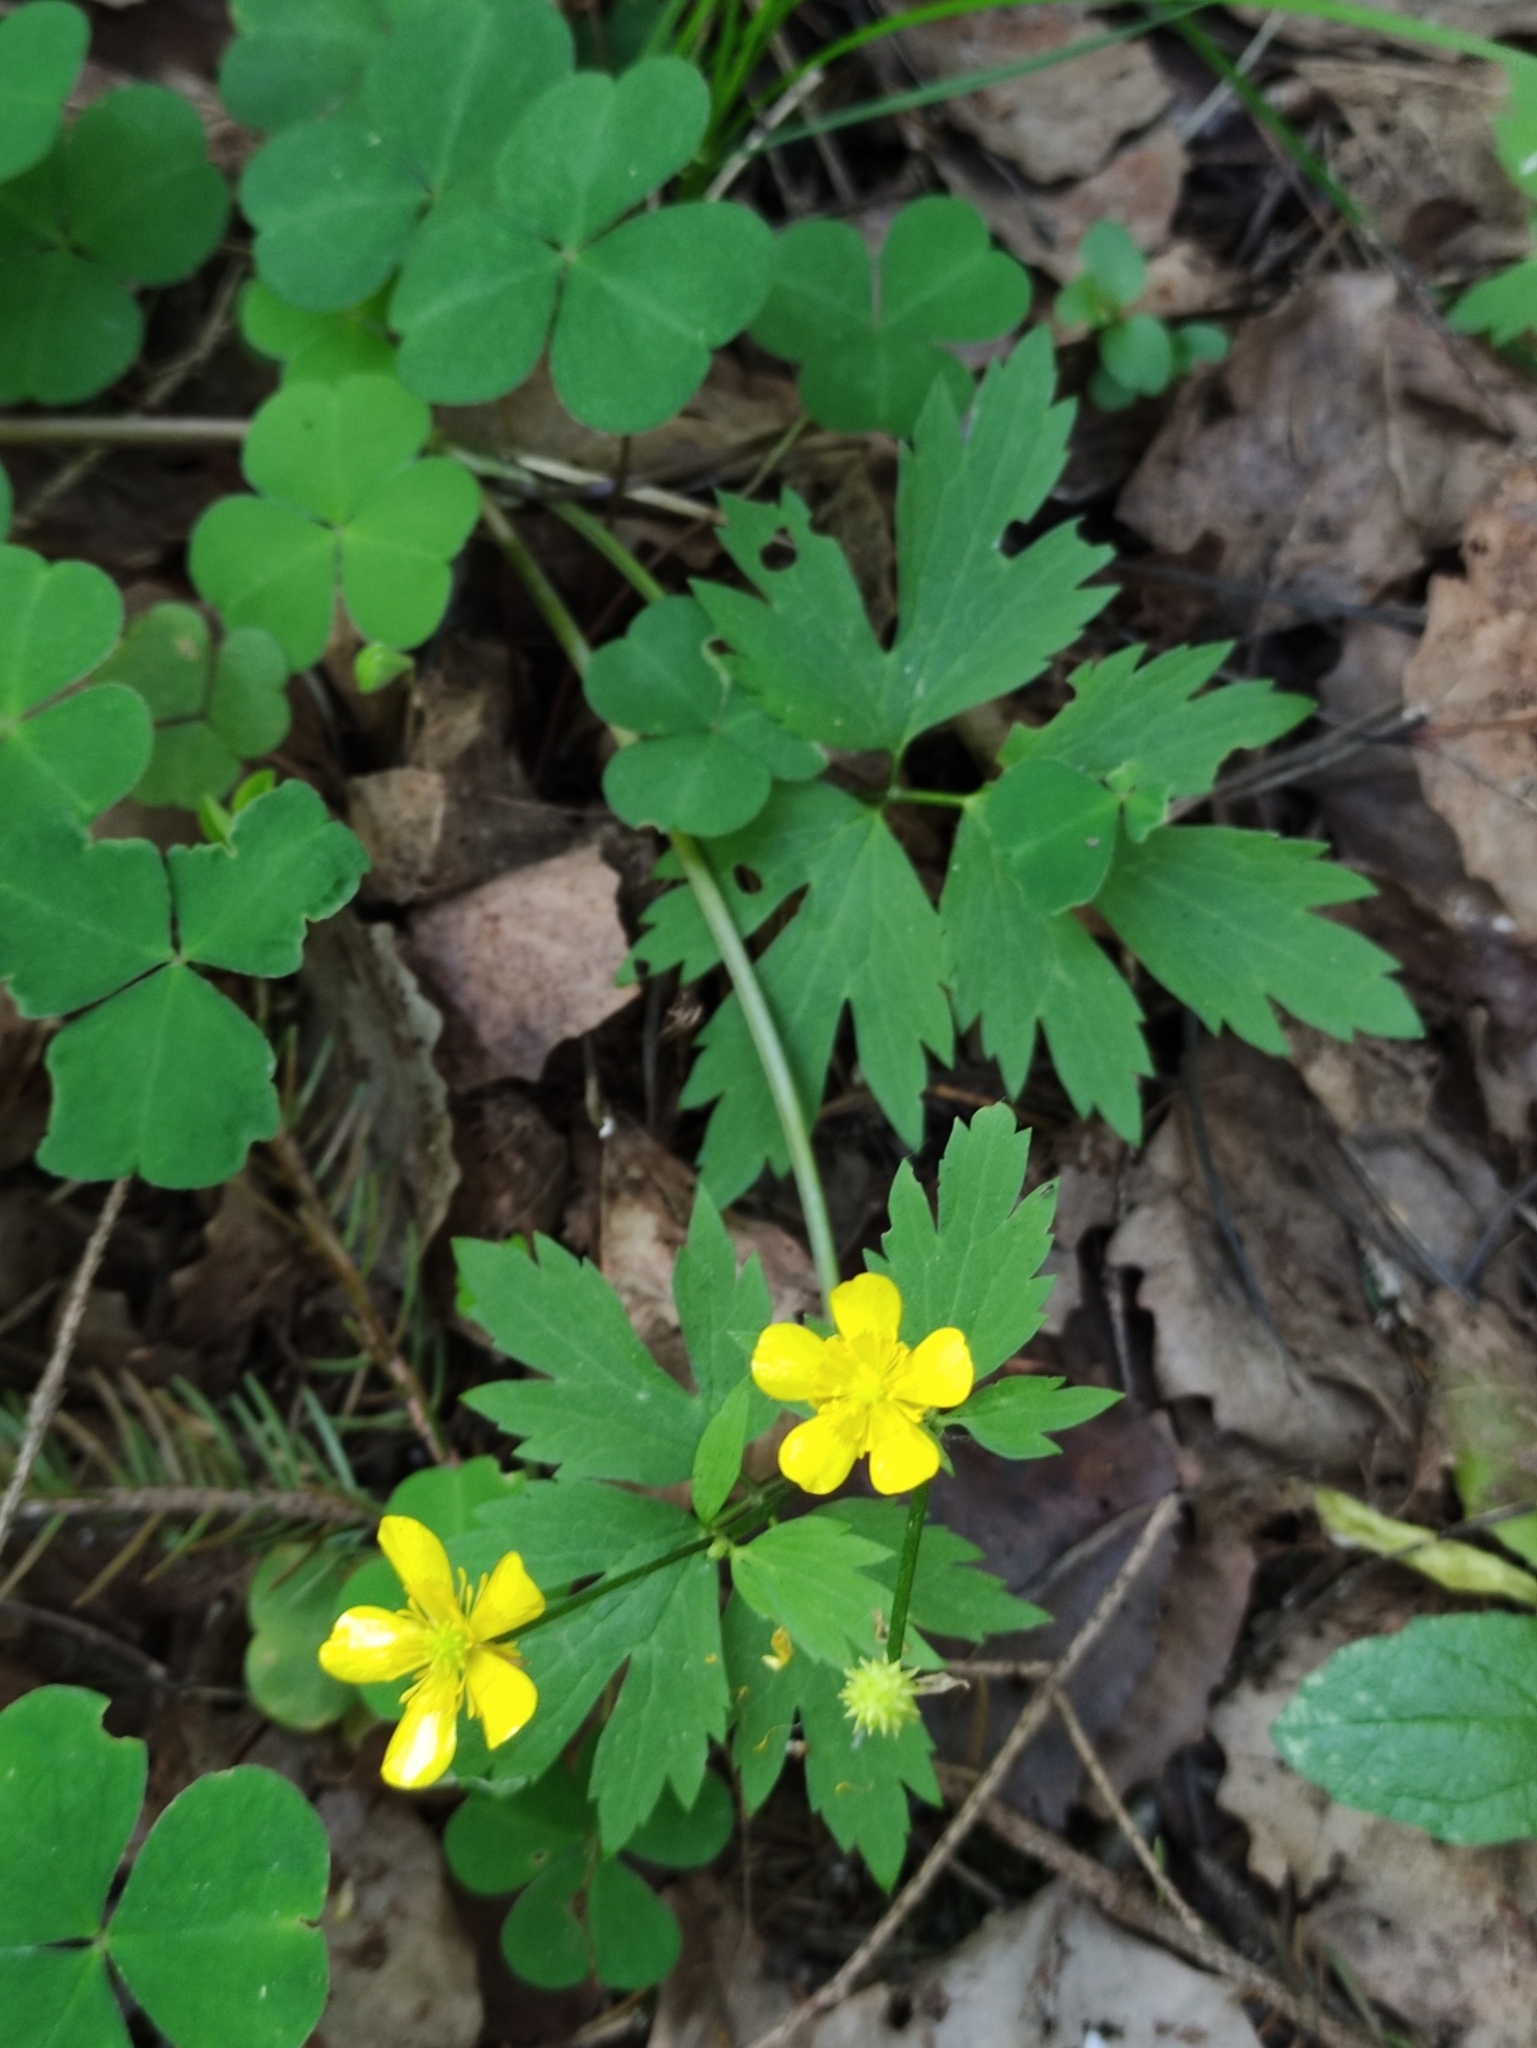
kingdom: Plantae
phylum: Tracheophyta
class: Magnoliopsida
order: Ranunculales
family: Ranunculaceae
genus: Ranunculus
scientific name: Ranunculus repens
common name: Creeping buttercup
